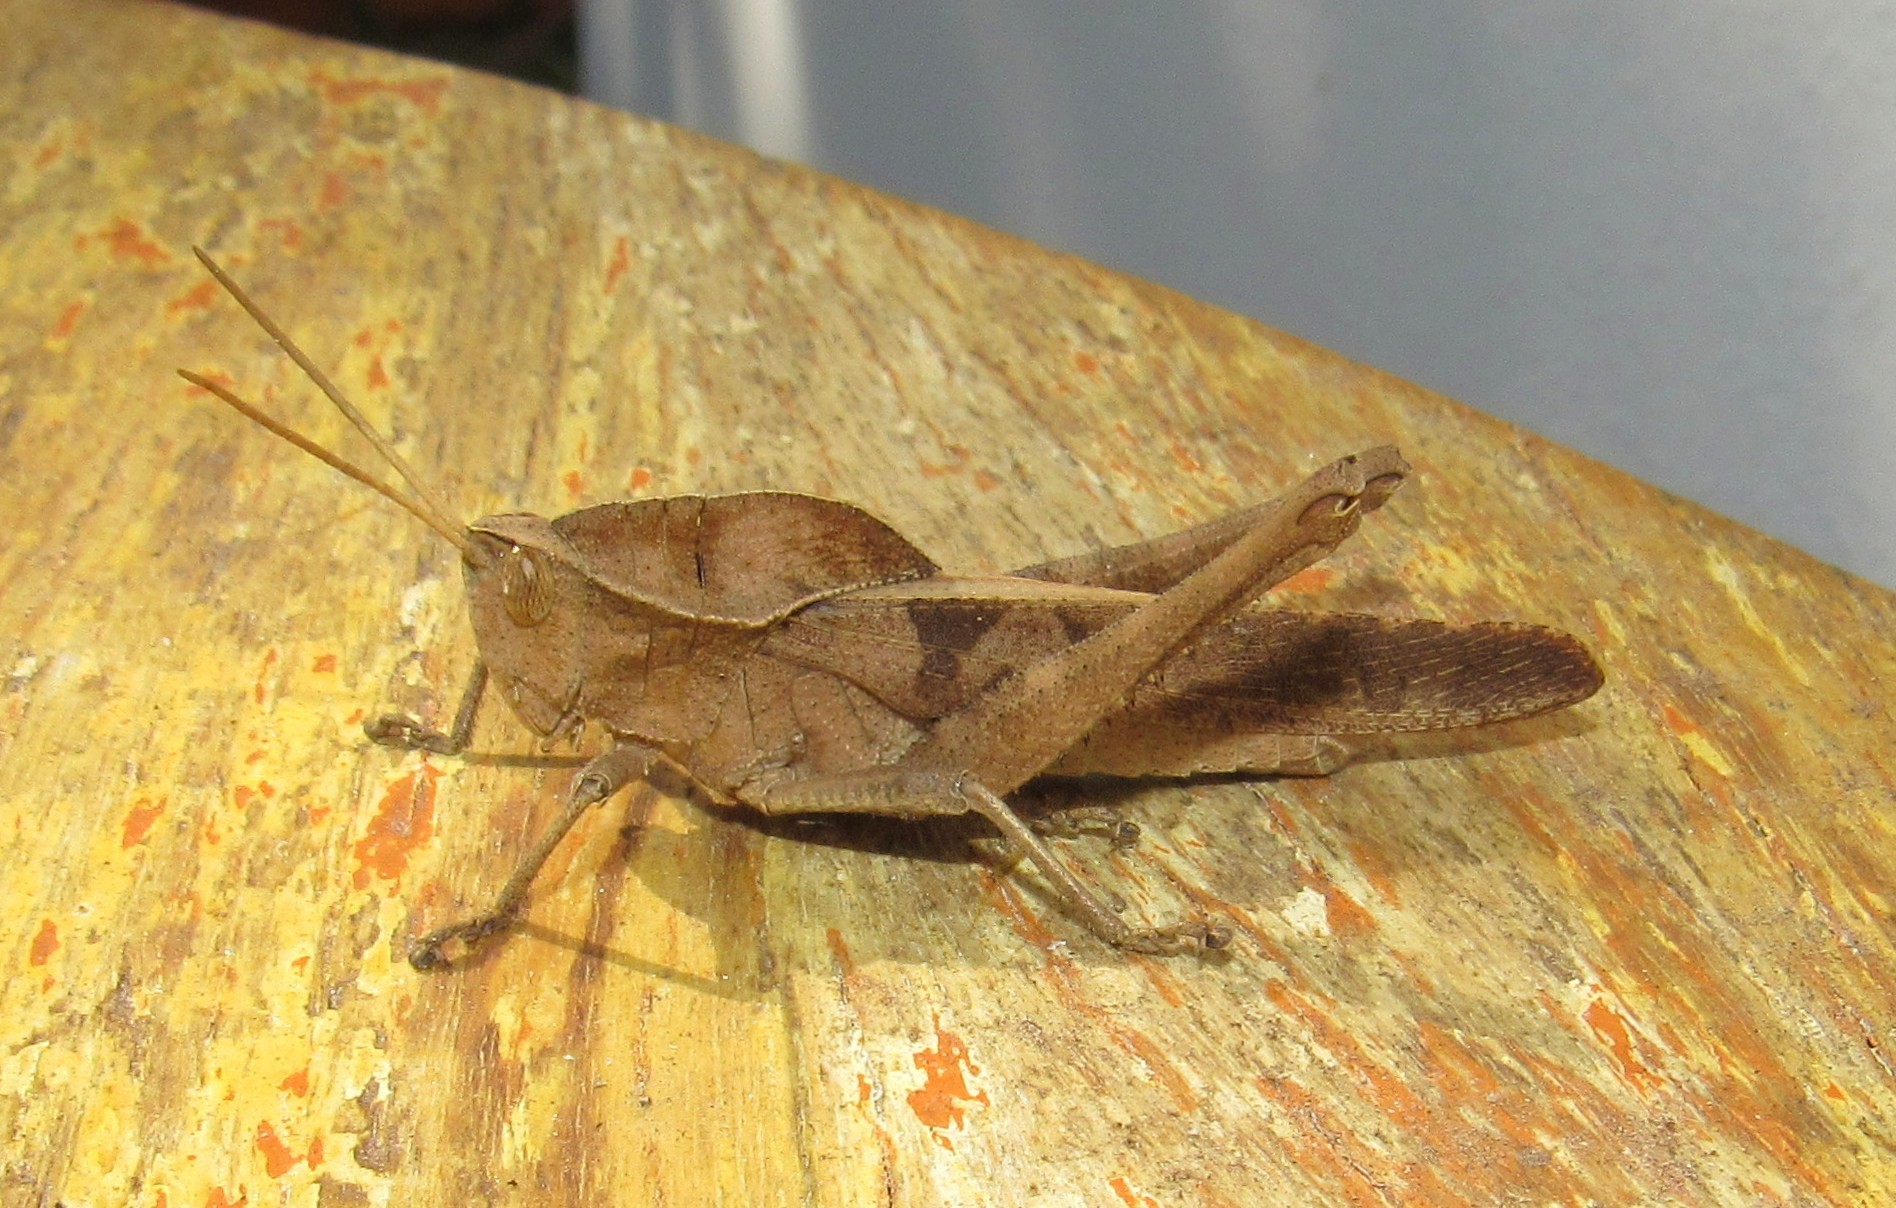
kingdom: Animalia
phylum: Arthropoda
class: Insecta
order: Orthoptera
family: Romaleidae
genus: Xyleus
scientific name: Xyleus discoideus
